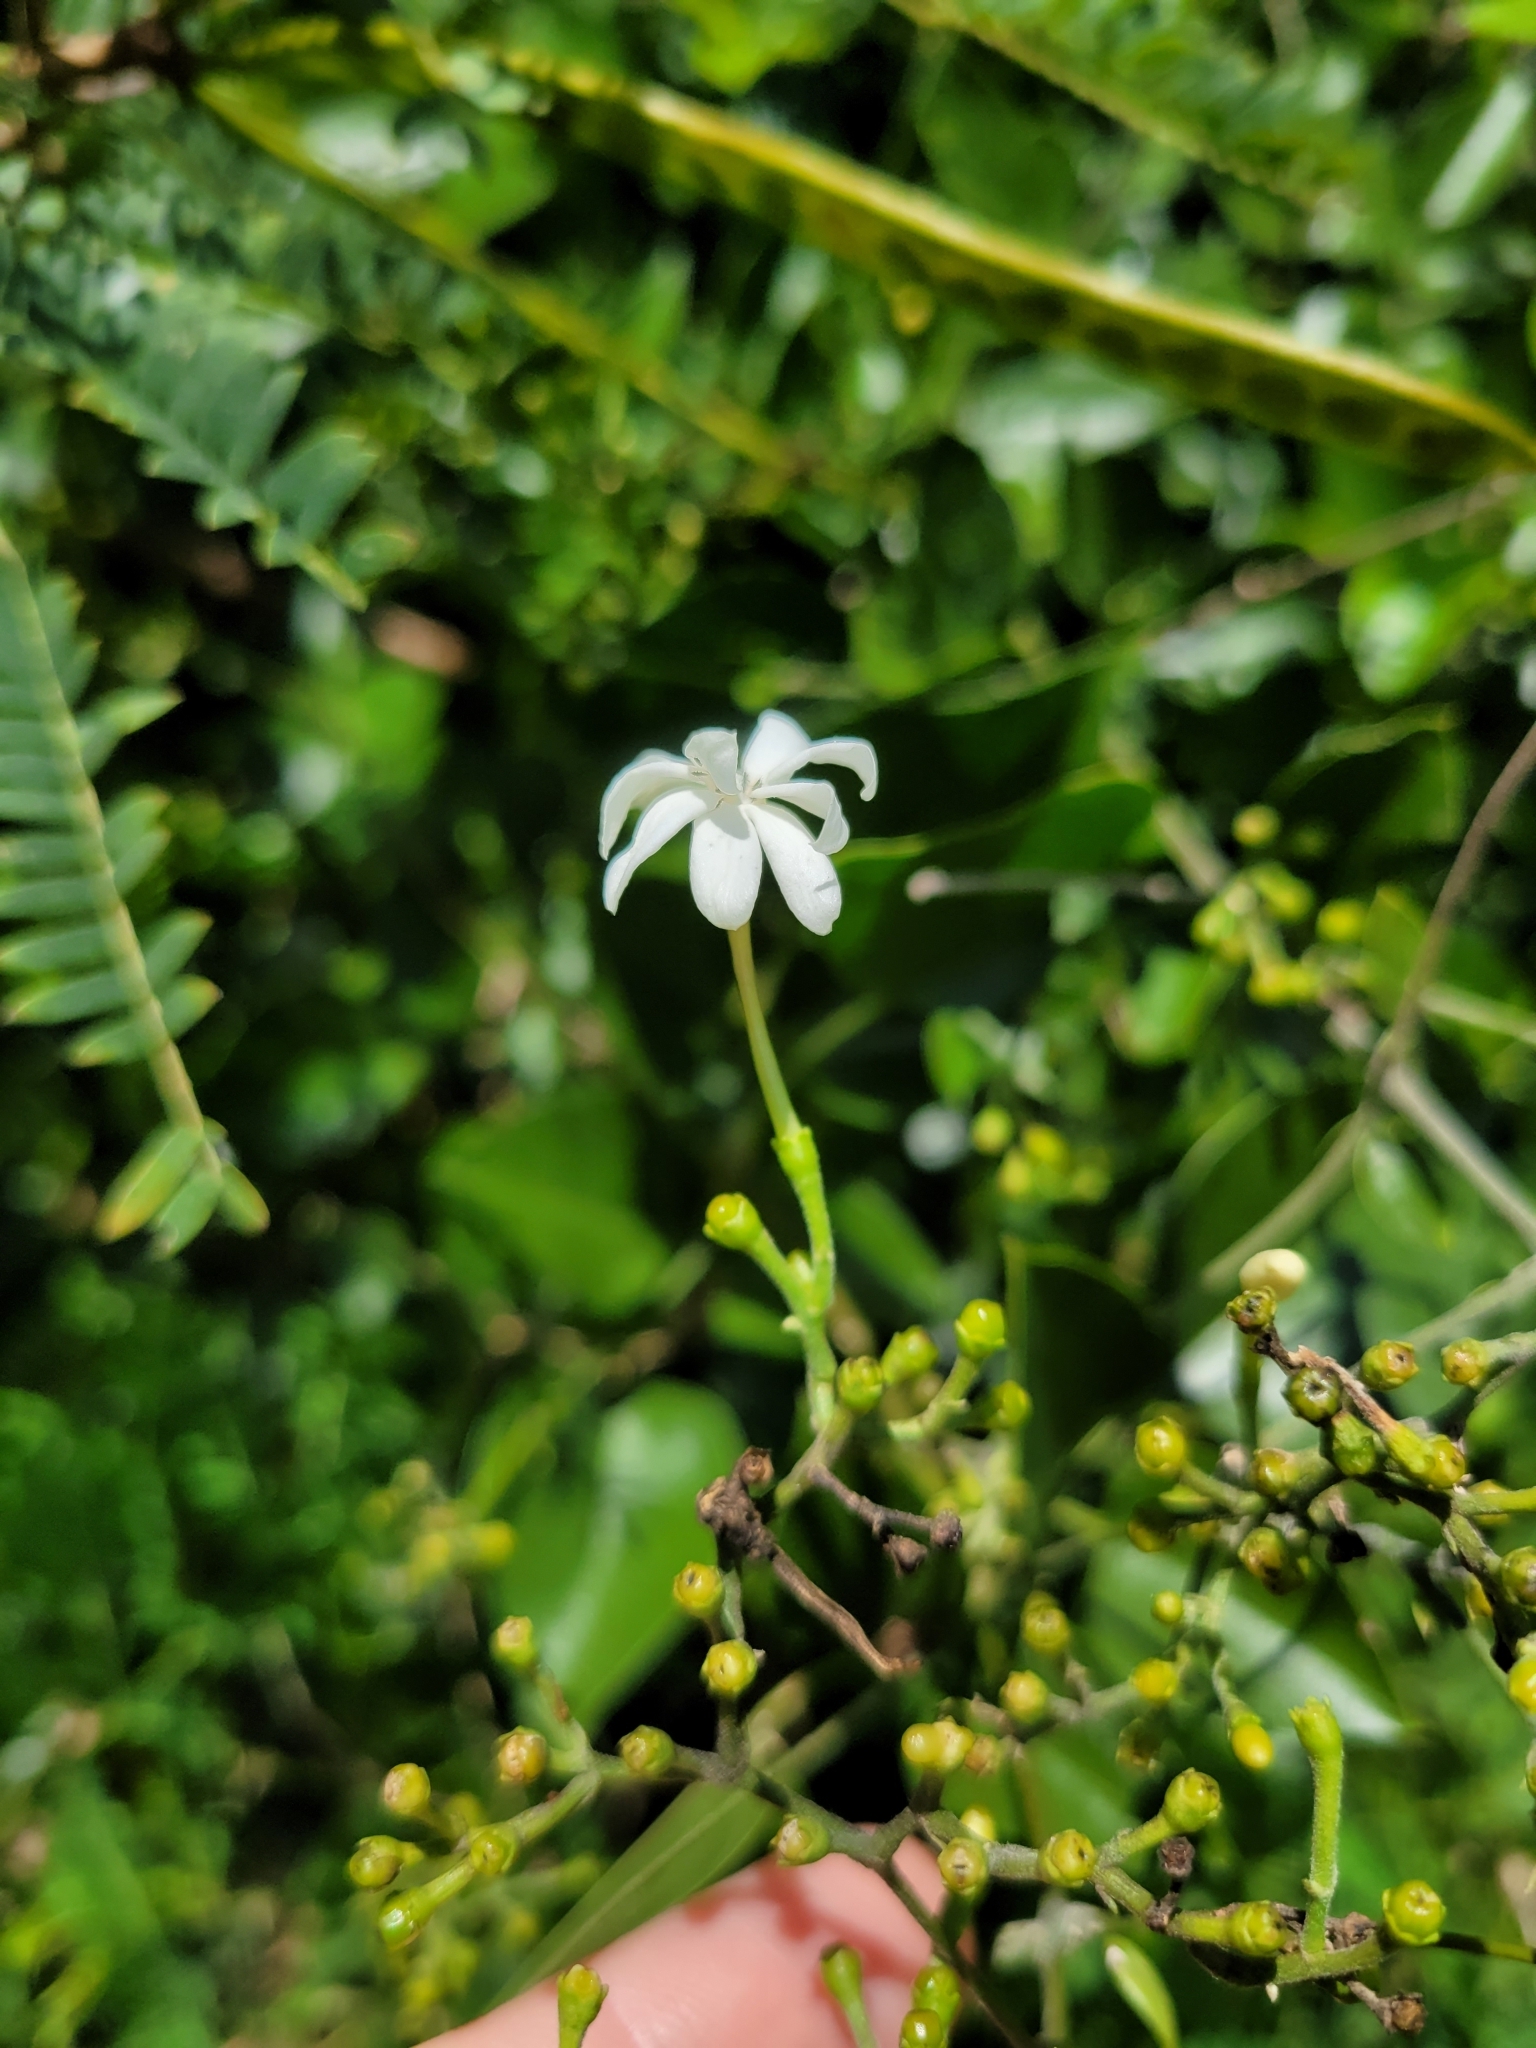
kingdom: Plantae
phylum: Tracheophyta
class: Magnoliopsida
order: Lamiales
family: Oleaceae
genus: Jasminum
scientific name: Jasminum fluminense
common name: Brazilian jasmine
